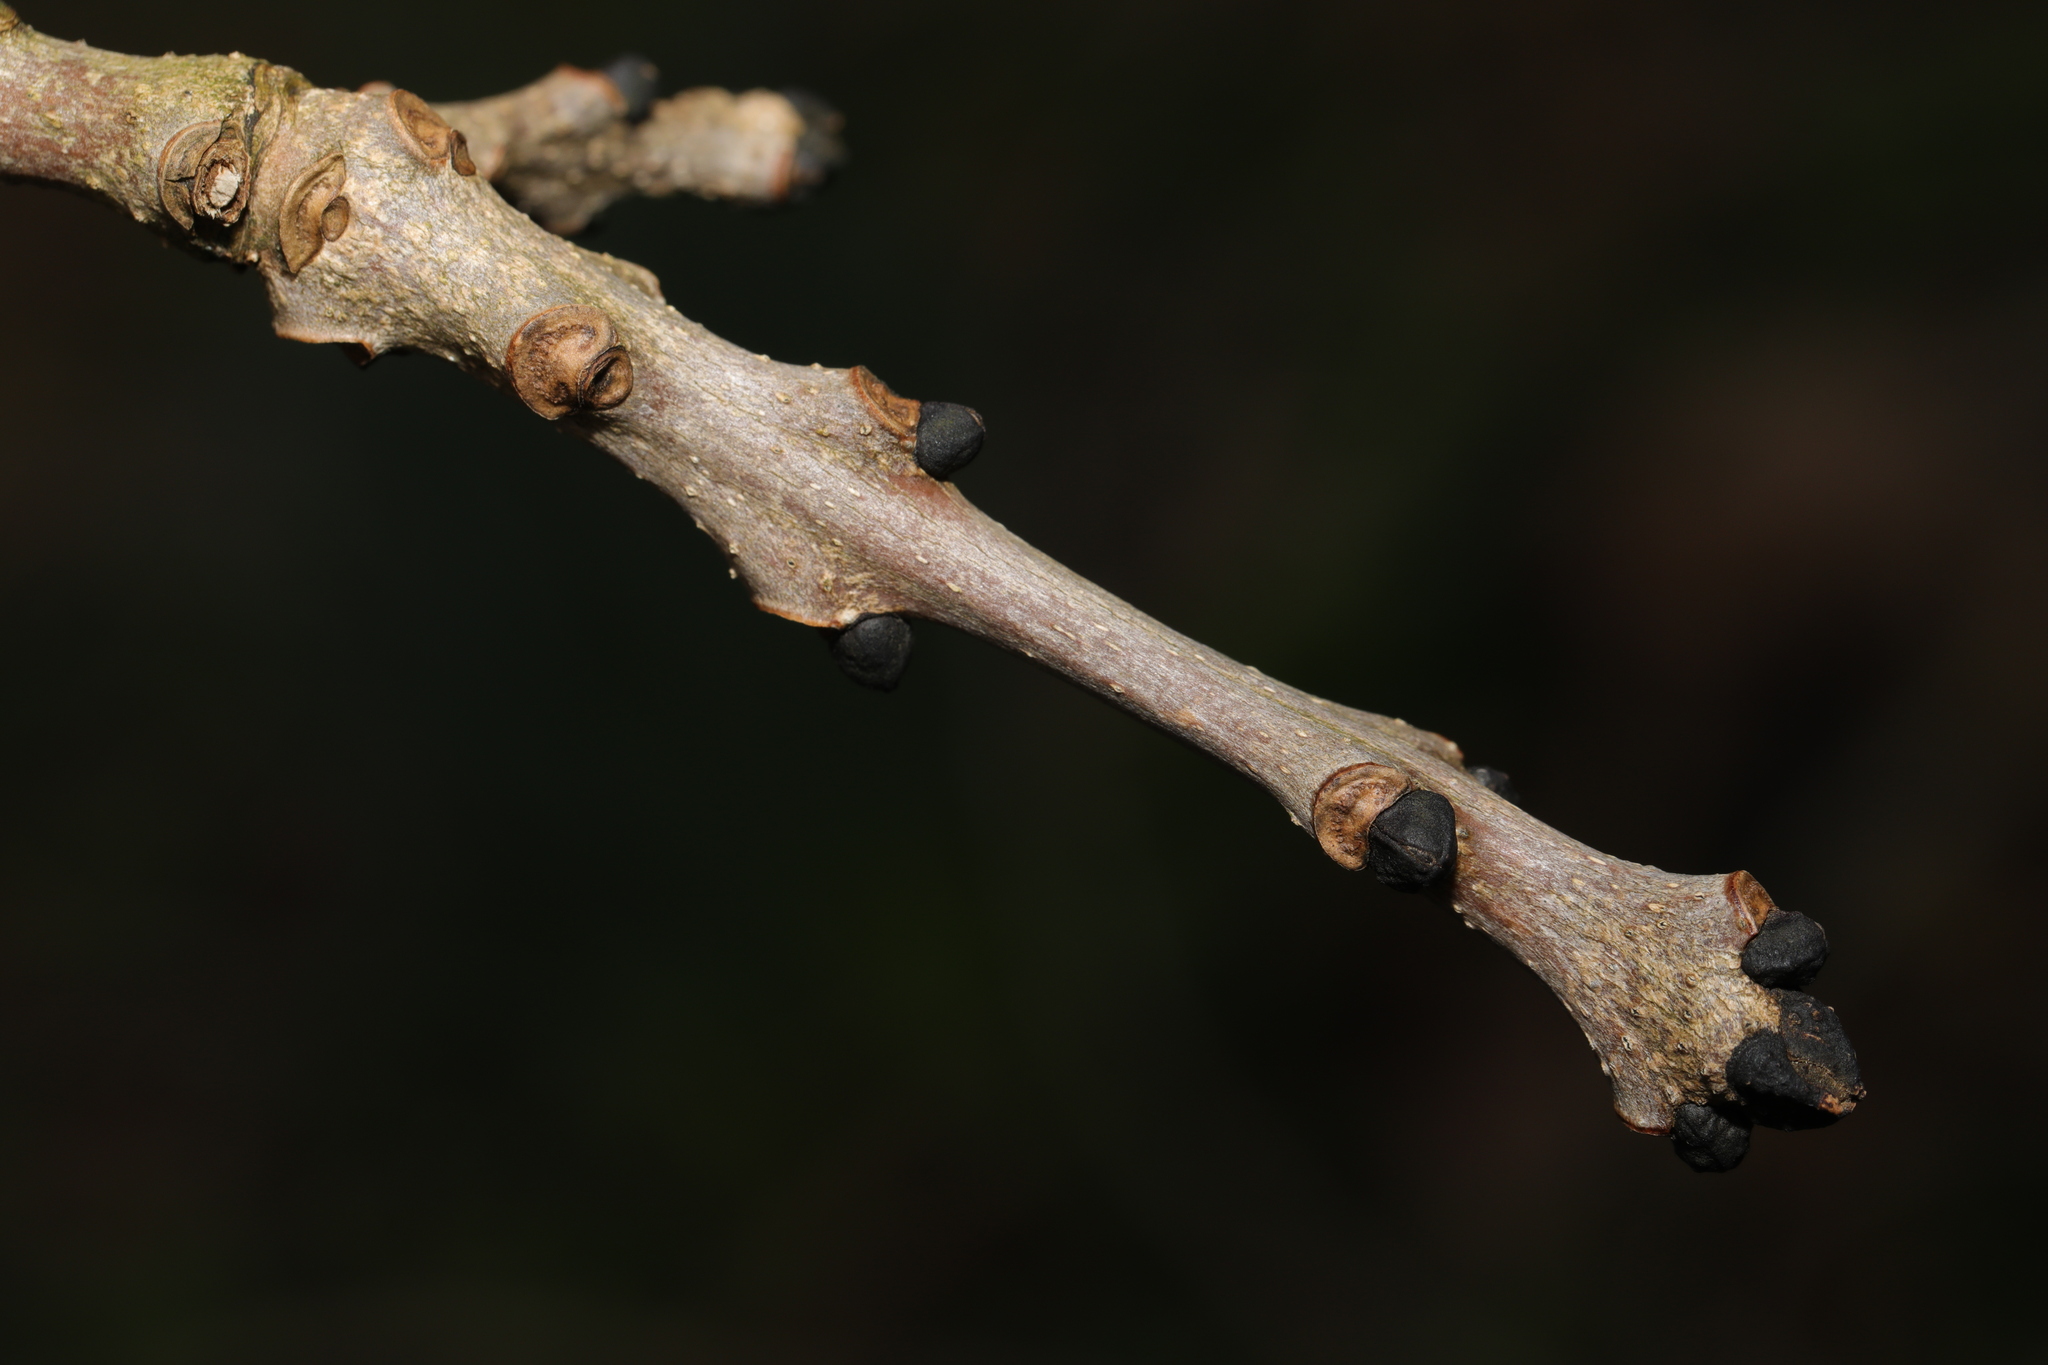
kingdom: Plantae
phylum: Tracheophyta
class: Magnoliopsida
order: Lamiales
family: Oleaceae
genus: Fraxinus
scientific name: Fraxinus excelsior
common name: European ash
